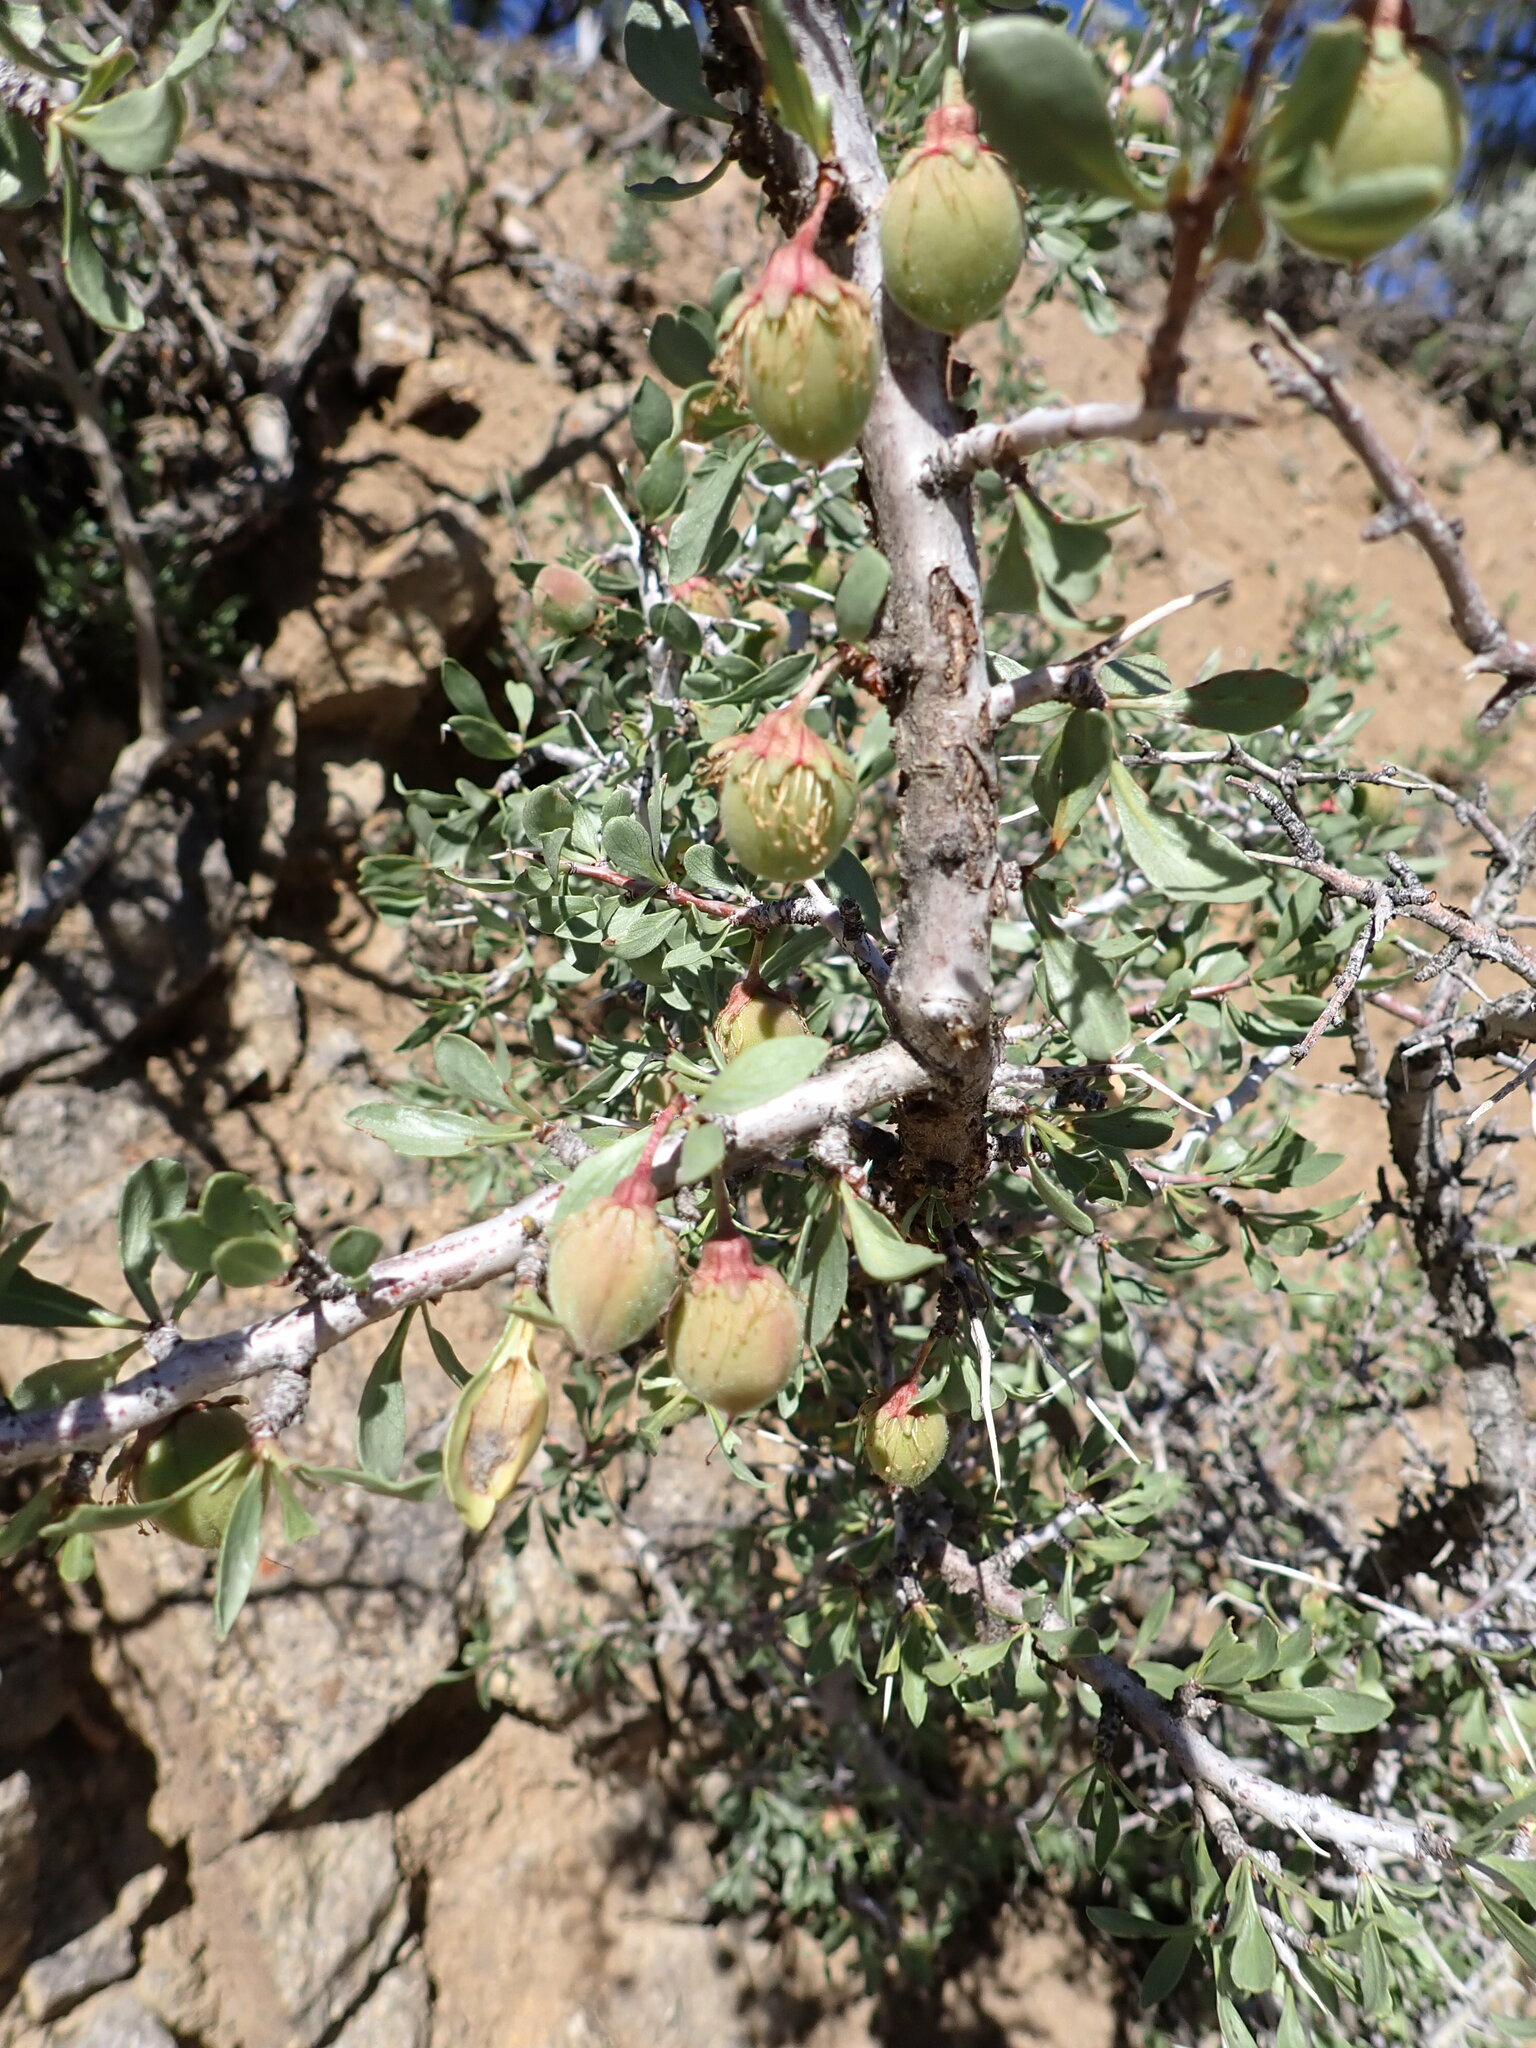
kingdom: Plantae
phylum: Tracheophyta
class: Magnoliopsida
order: Rosales
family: Rosaceae
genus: Prunus
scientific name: Prunus andersonii
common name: Desert peach
